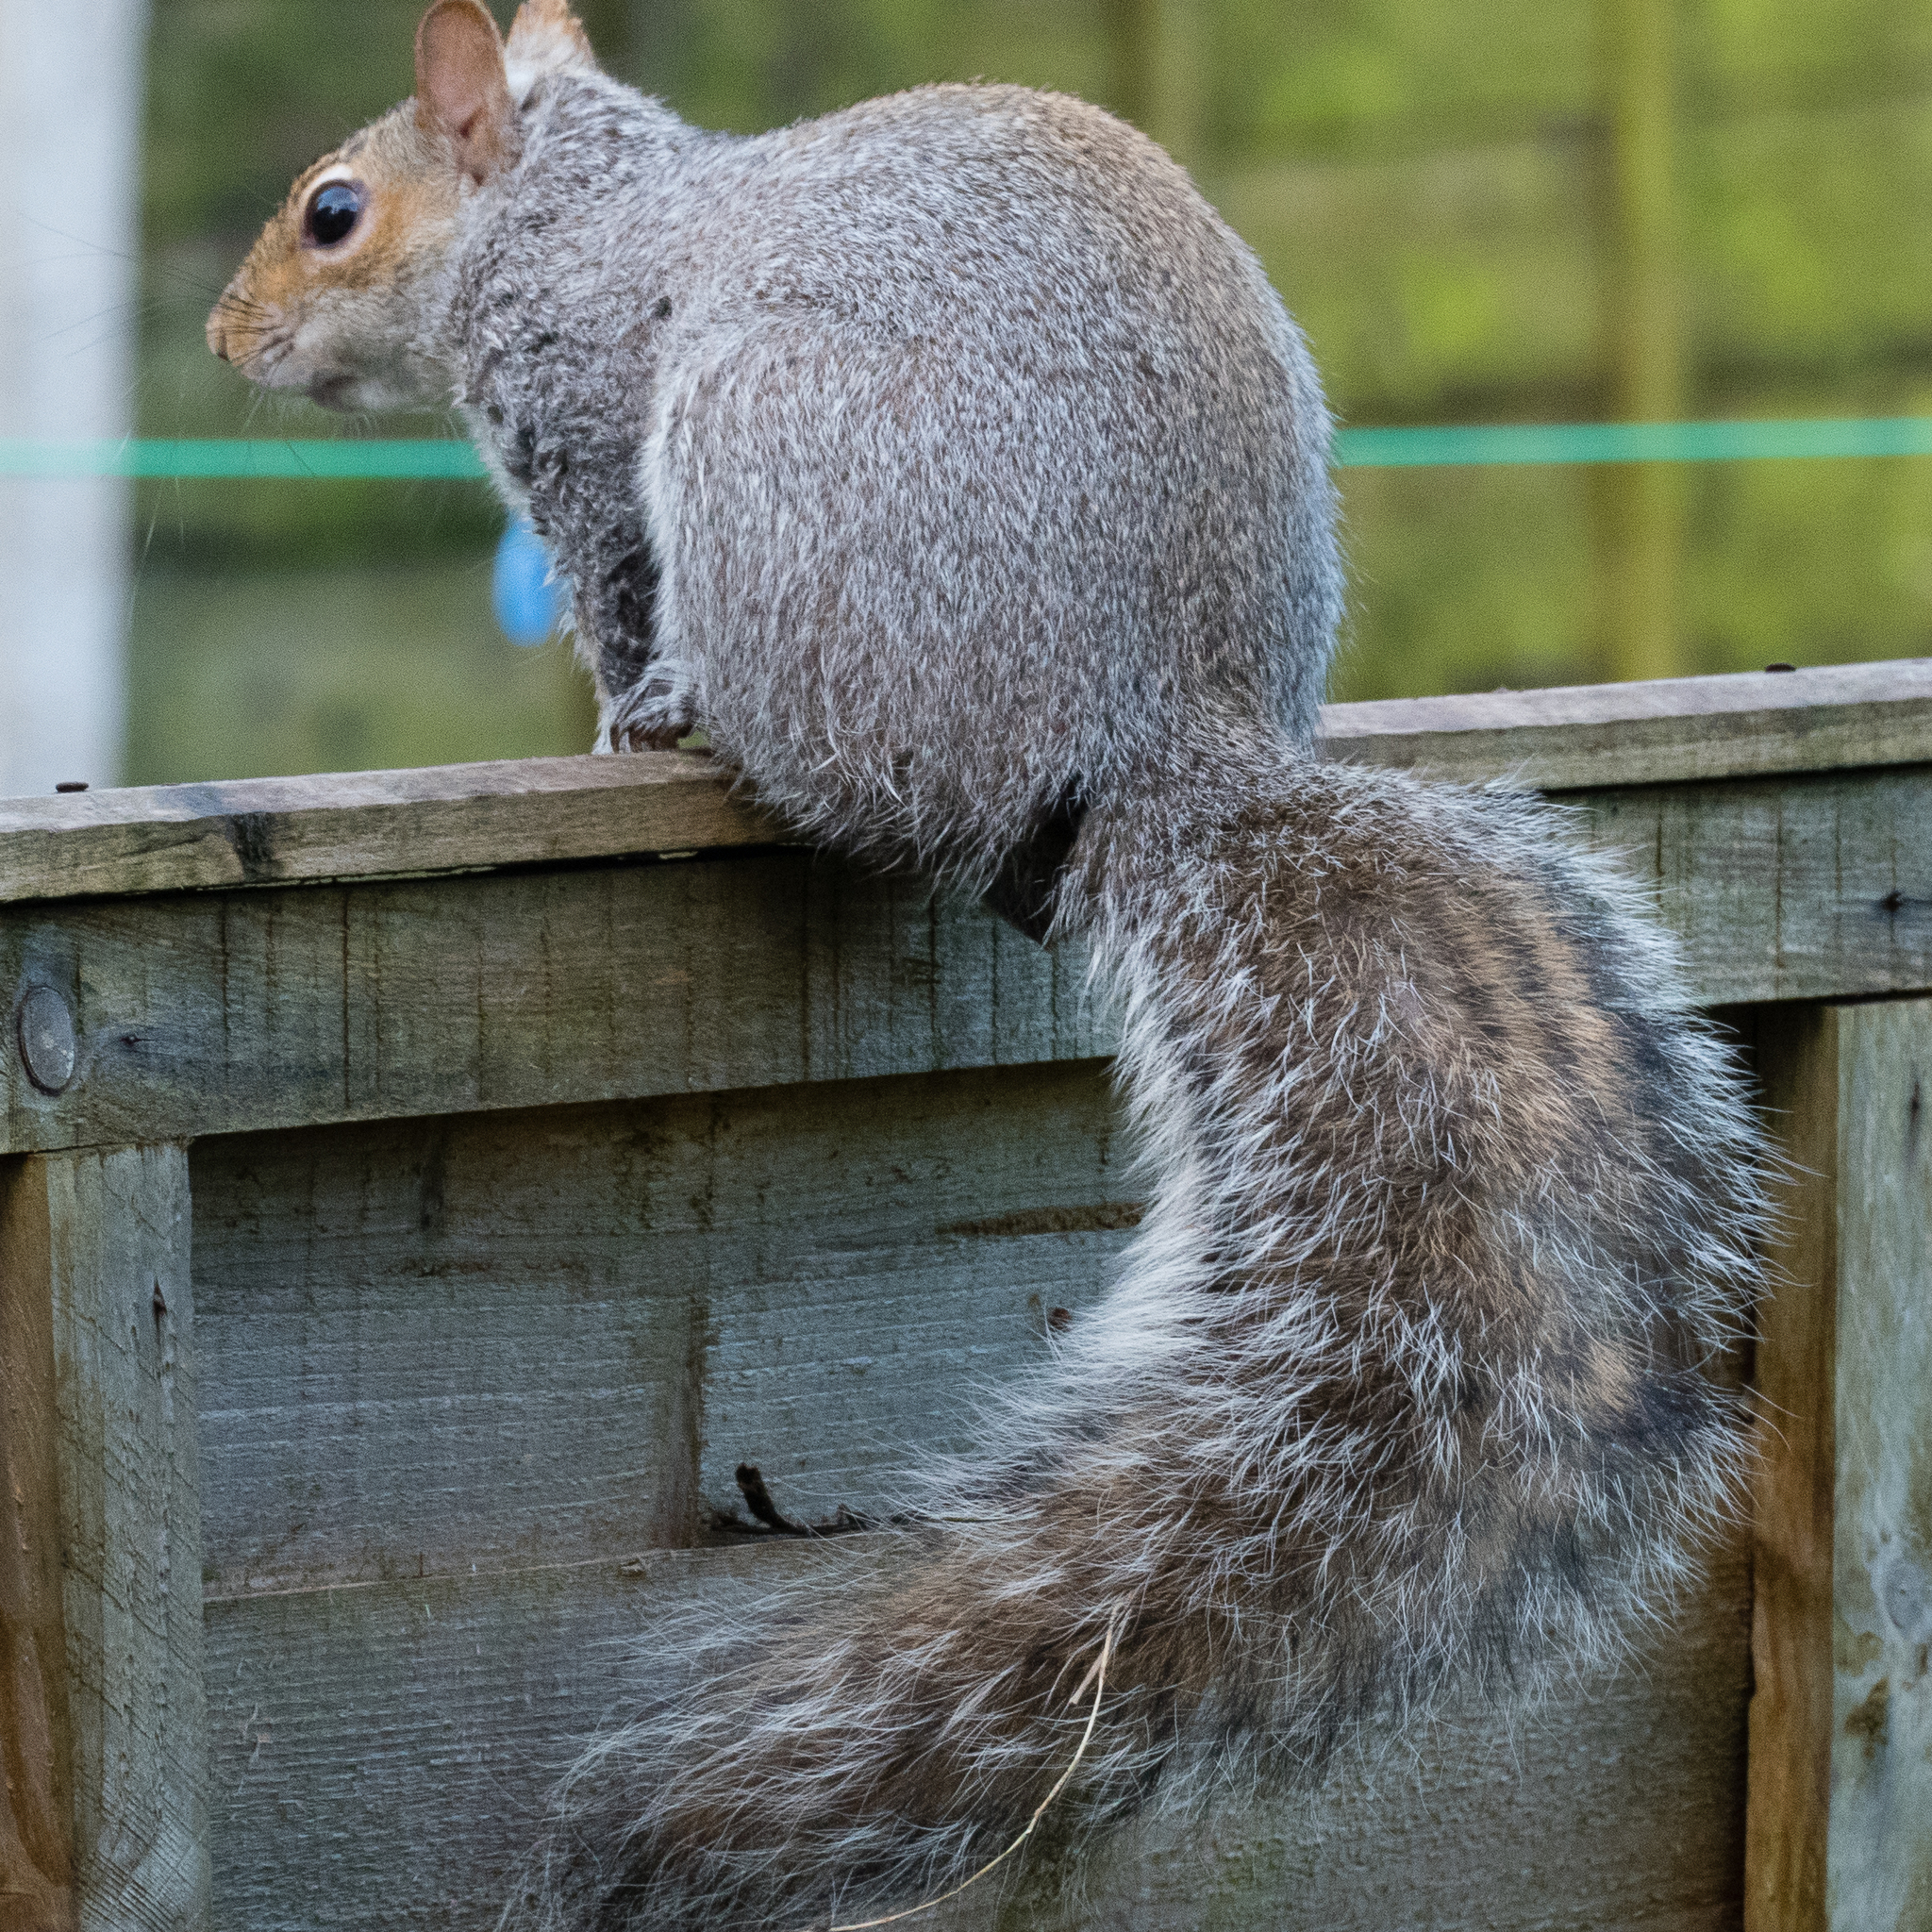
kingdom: Animalia
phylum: Chordata
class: Mammalia
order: Rodentia
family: Sciuridae
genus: Sciurus
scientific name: Sciurus carolinensis
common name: Eastern gray squirrel
